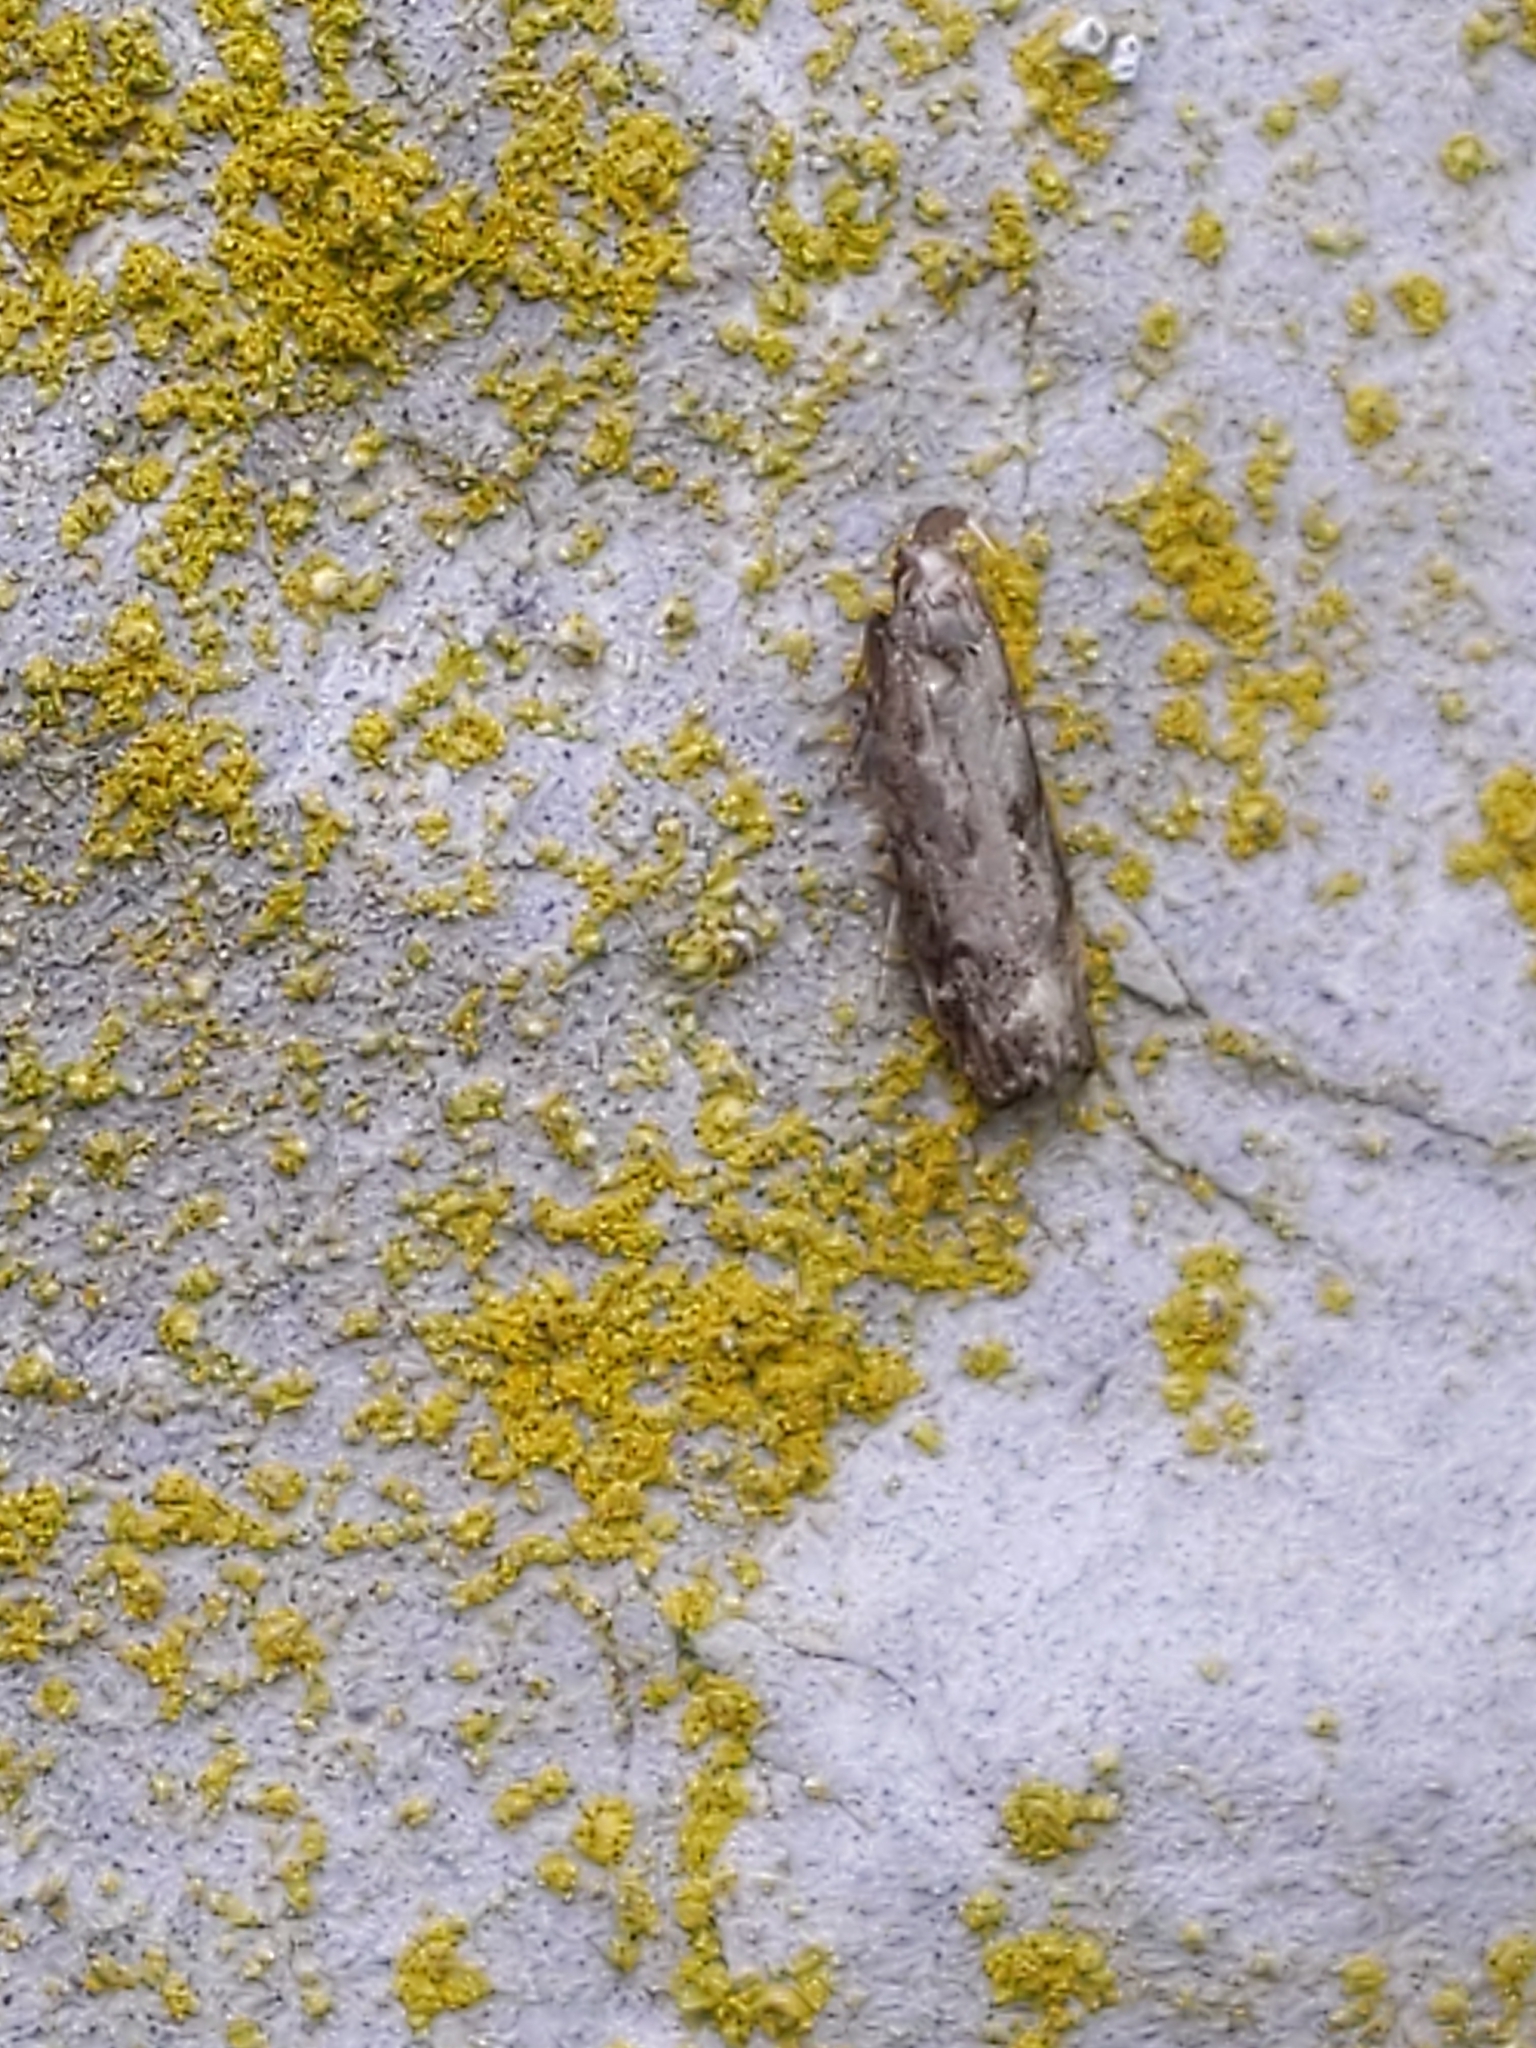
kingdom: Animalia
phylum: Arthropoda
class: Insecta
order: Lepidoptera
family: Gelechiidae
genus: Dichomeris
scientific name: Dichomeris inversella
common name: Inverse dichomeris moth
